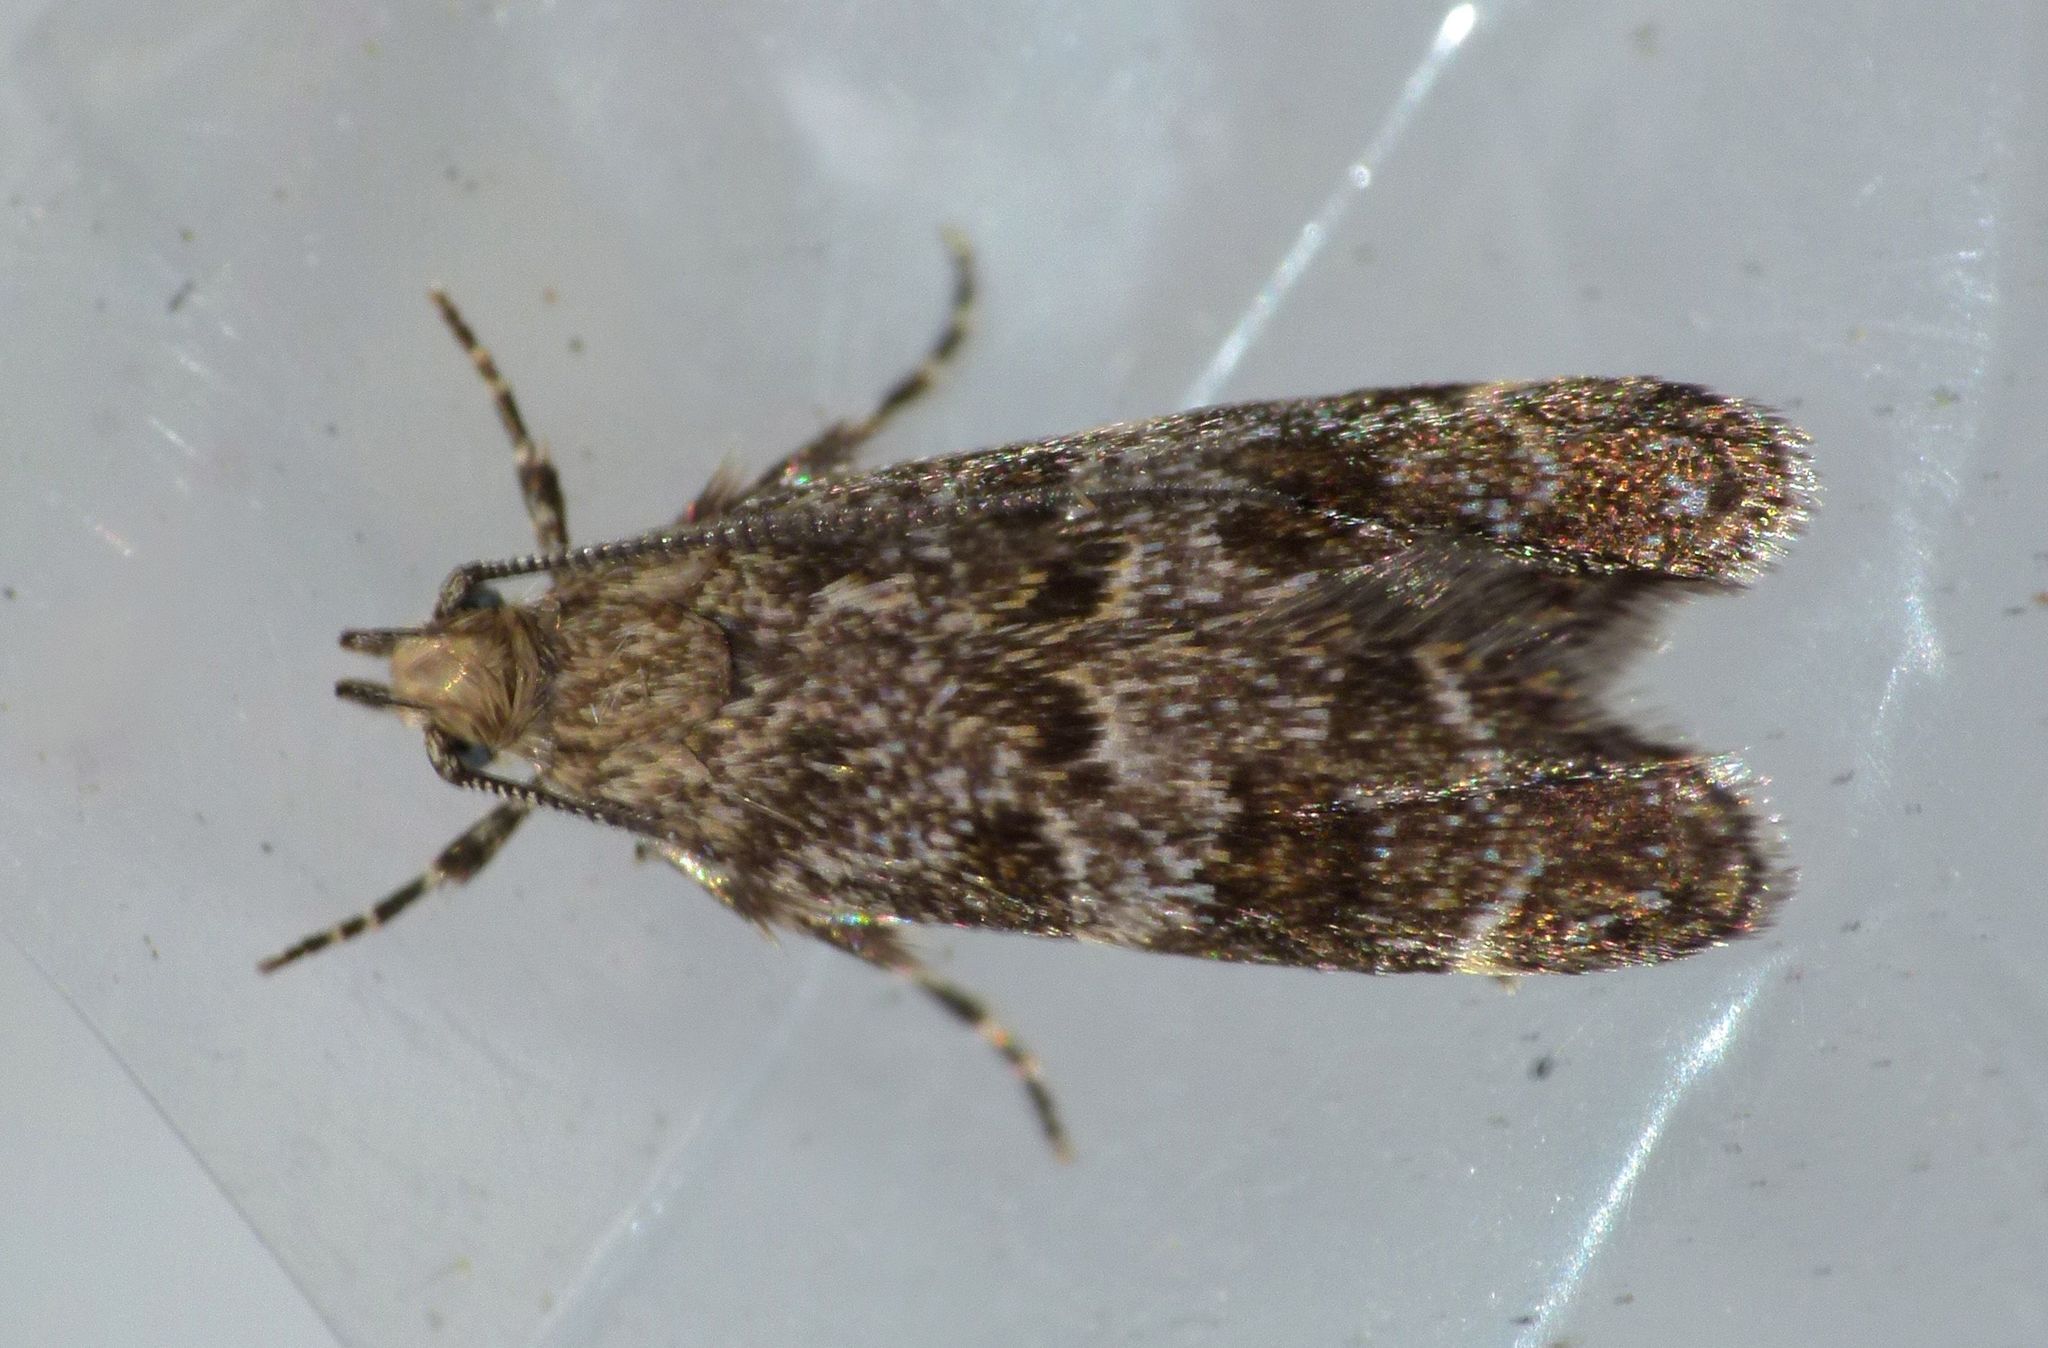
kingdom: Animalia
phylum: Arthropoda
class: Insecta
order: Lepidoptera
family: Oecophoridae
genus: Gymnobathra
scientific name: Gymnobathra omphalota
